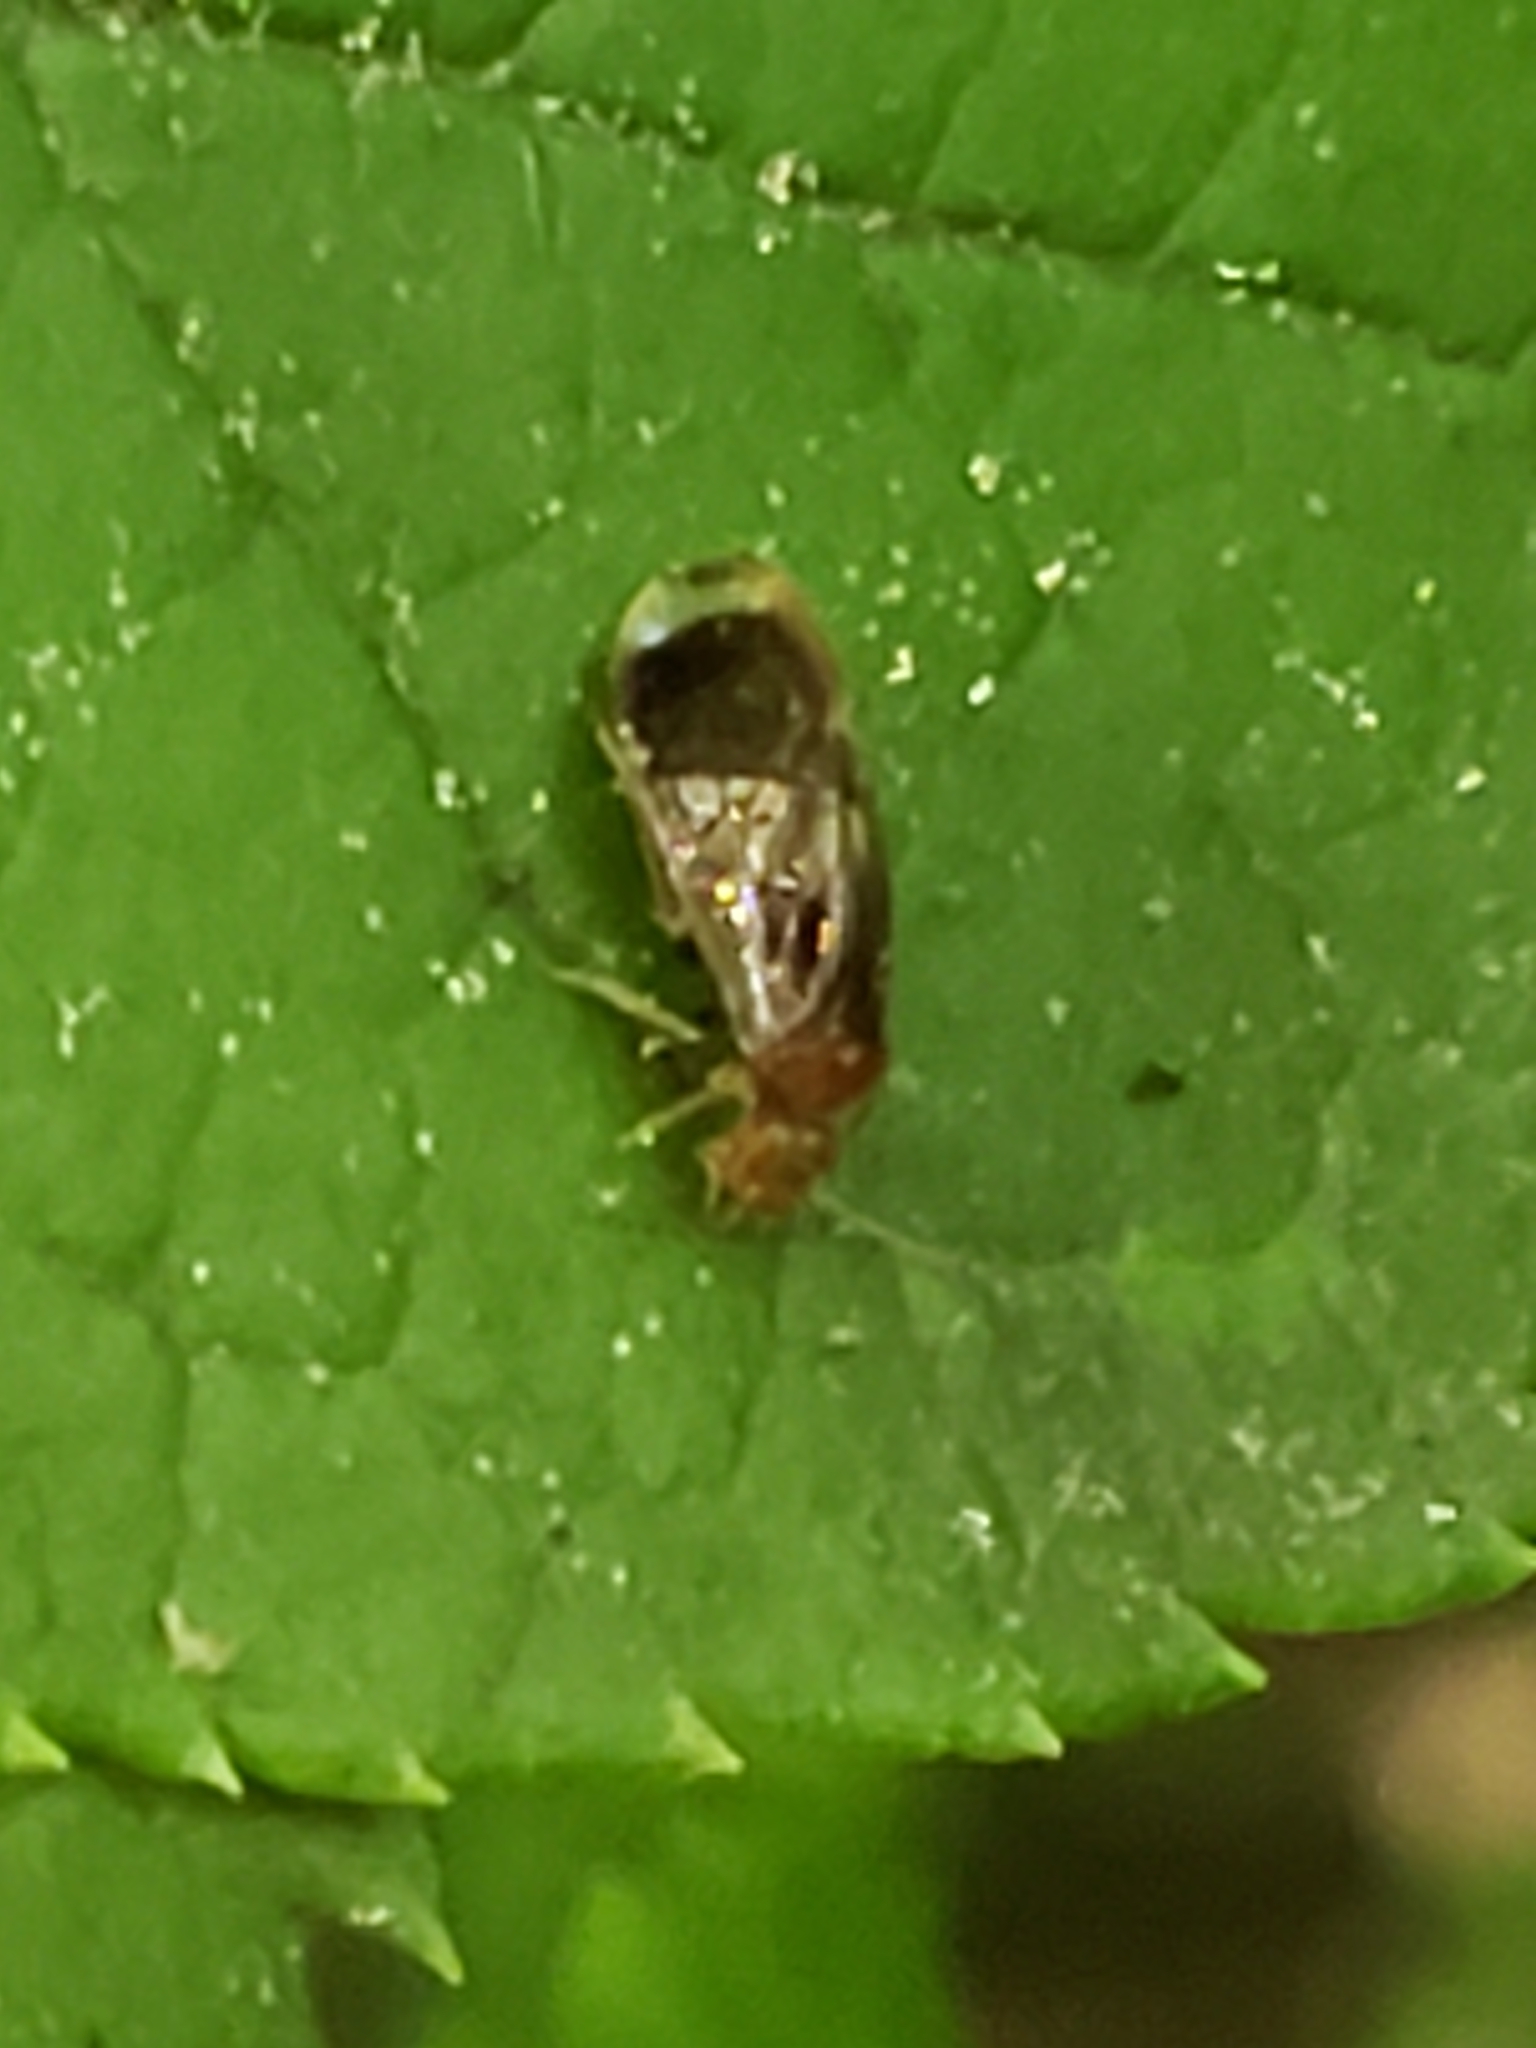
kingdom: Animalia
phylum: Arthropoda
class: Insecta
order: Psocodea
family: Amphipsocidae
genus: Polypsocus
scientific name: Polypsocus corruptus
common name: Corrupt barklouse
